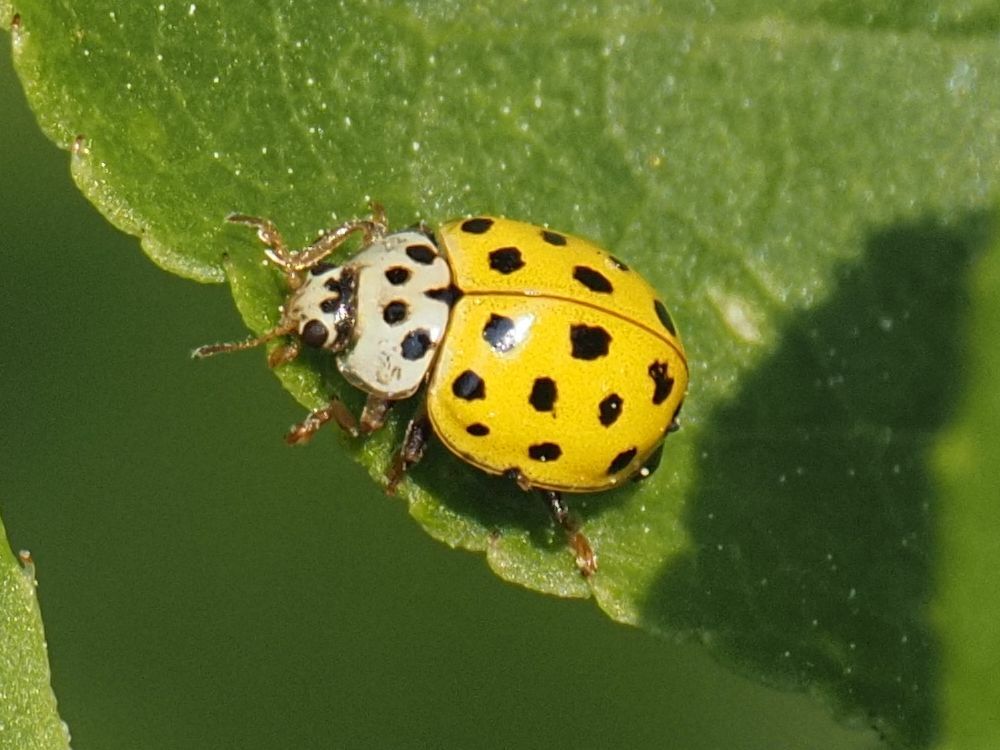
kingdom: Animalia
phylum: Arthropoda
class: Insecta
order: Coleoptera
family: Coccinellidae
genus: Psyllobora
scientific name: Psyllobora vigintiduopunctata
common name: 22-spot ladybird
